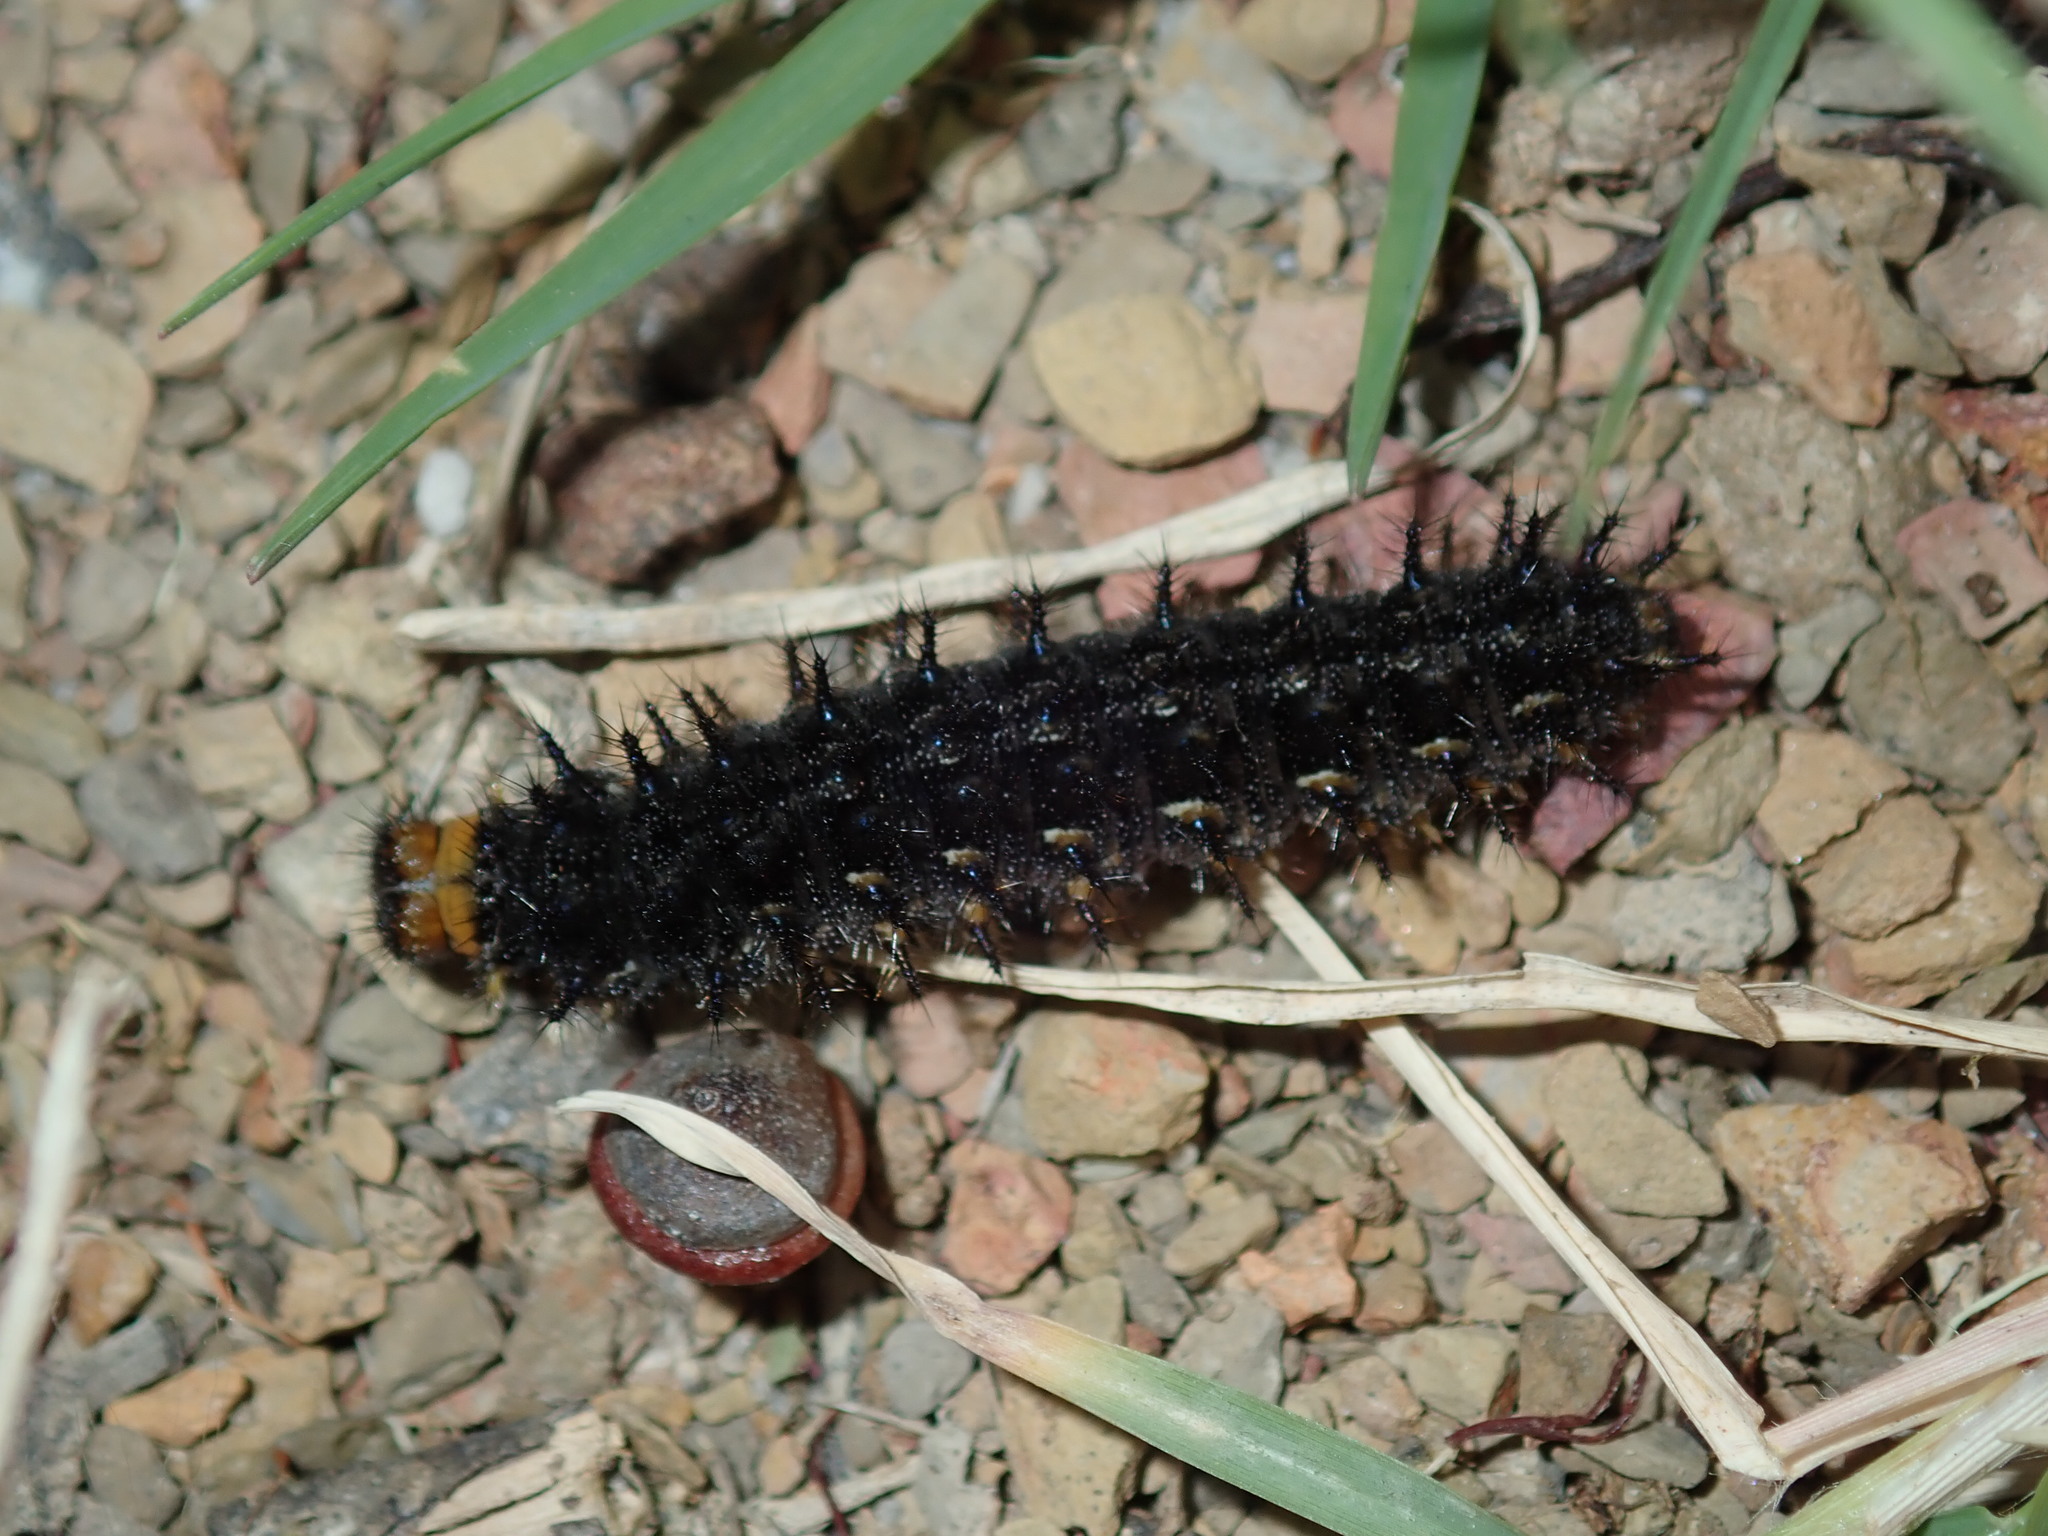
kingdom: Animalia
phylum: Arthropoda
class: Insecta
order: Lepidoptera
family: Nymphalidae
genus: Junonia
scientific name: Junonia villida
